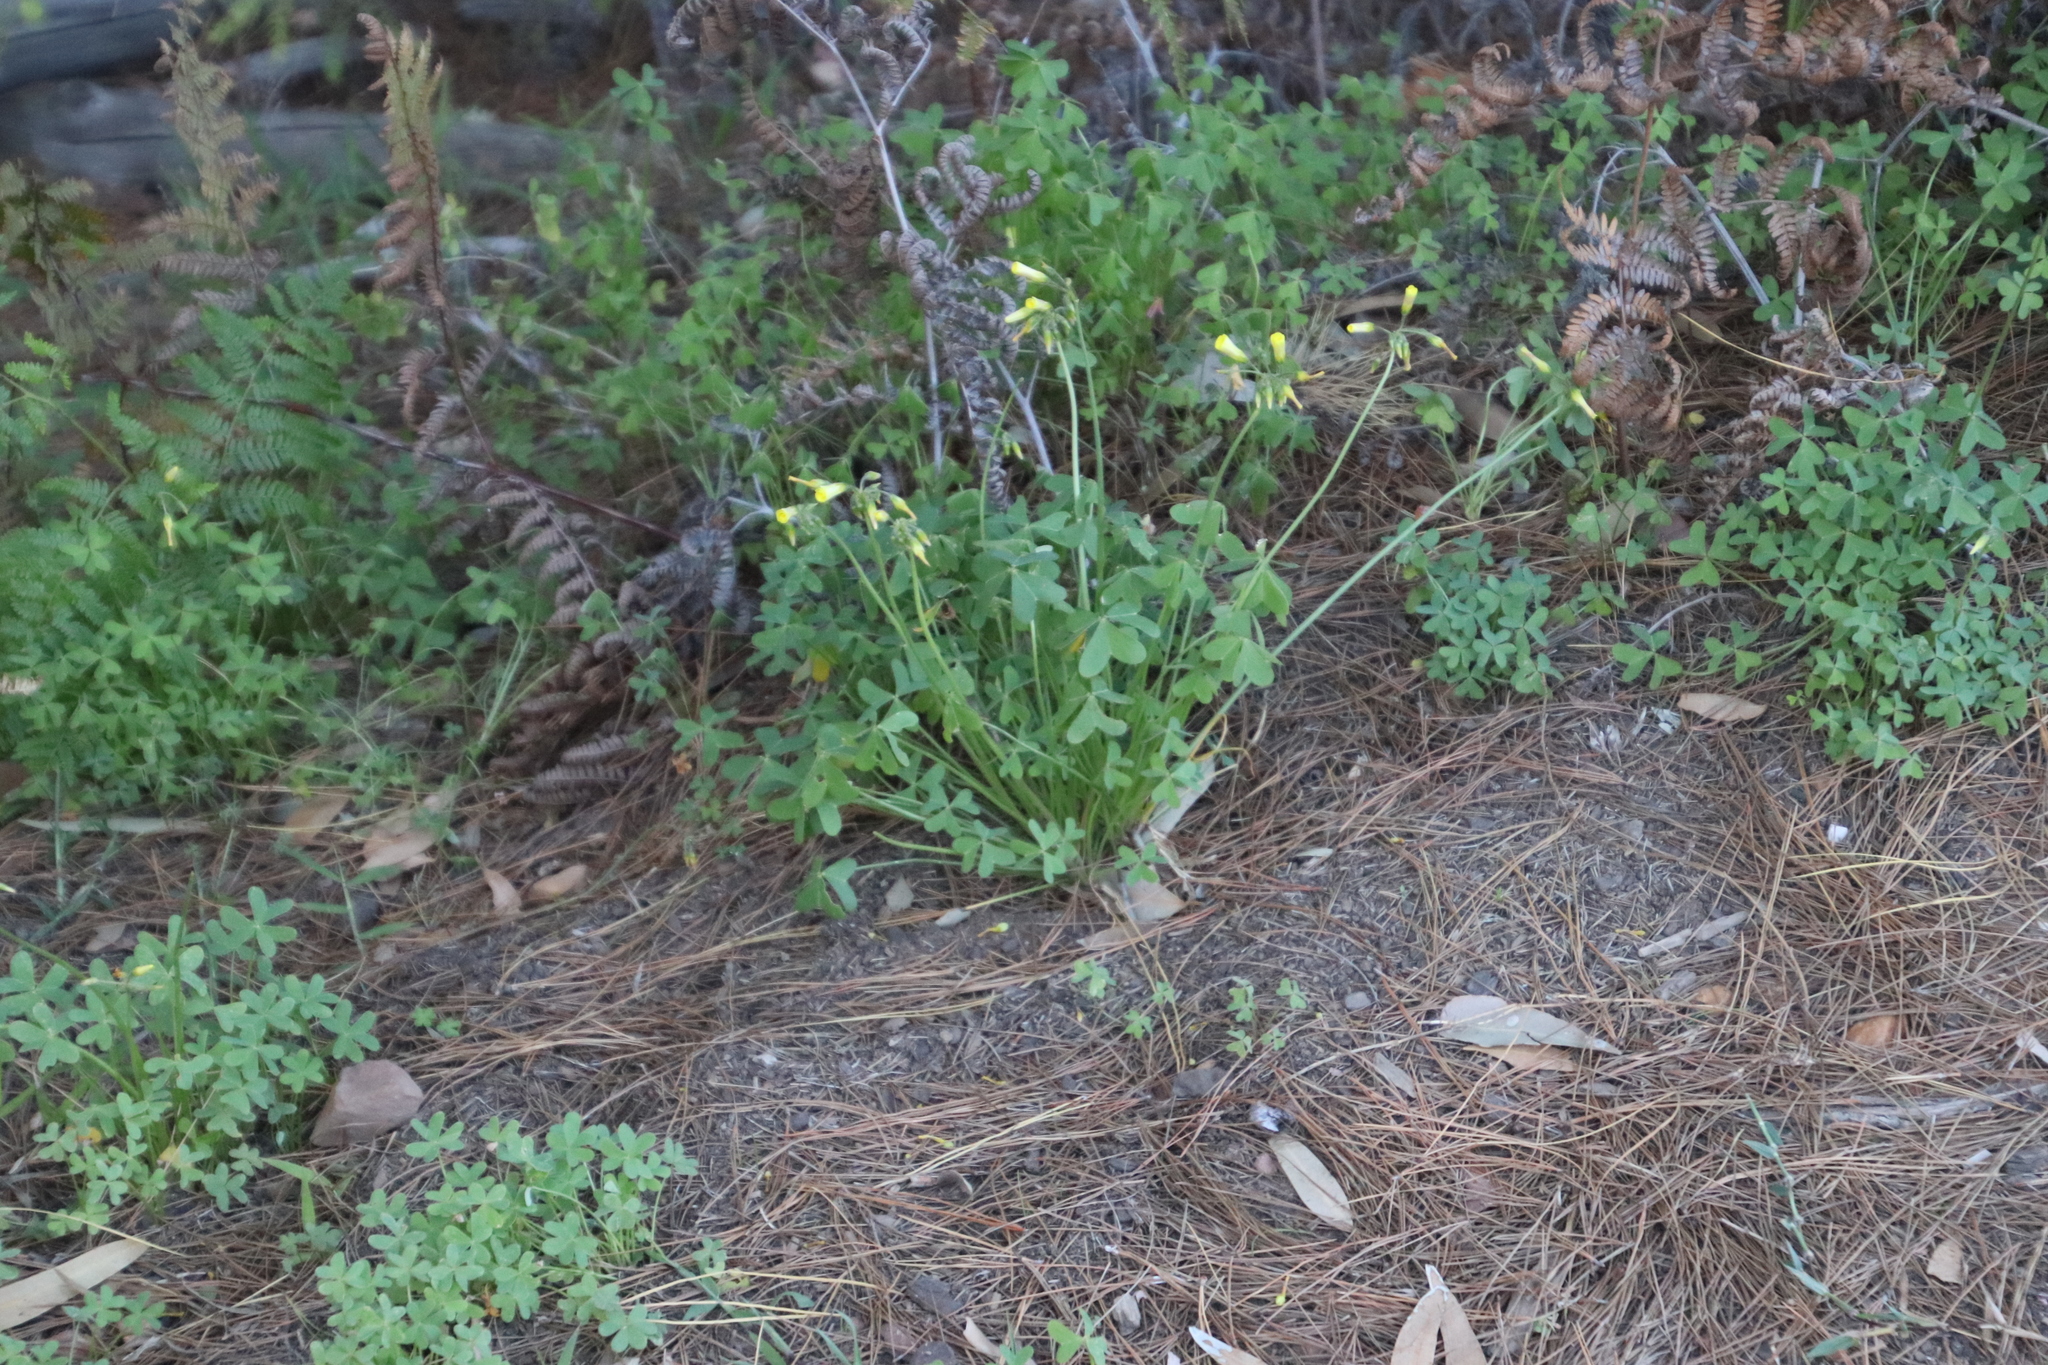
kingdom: Plantae
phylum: Tracheophyta
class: Magnoliopsida
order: Oxalidales
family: Oxalidaceae
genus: Oxalis
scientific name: Oxalis pes-caprae
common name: Bermuda-buttercup
